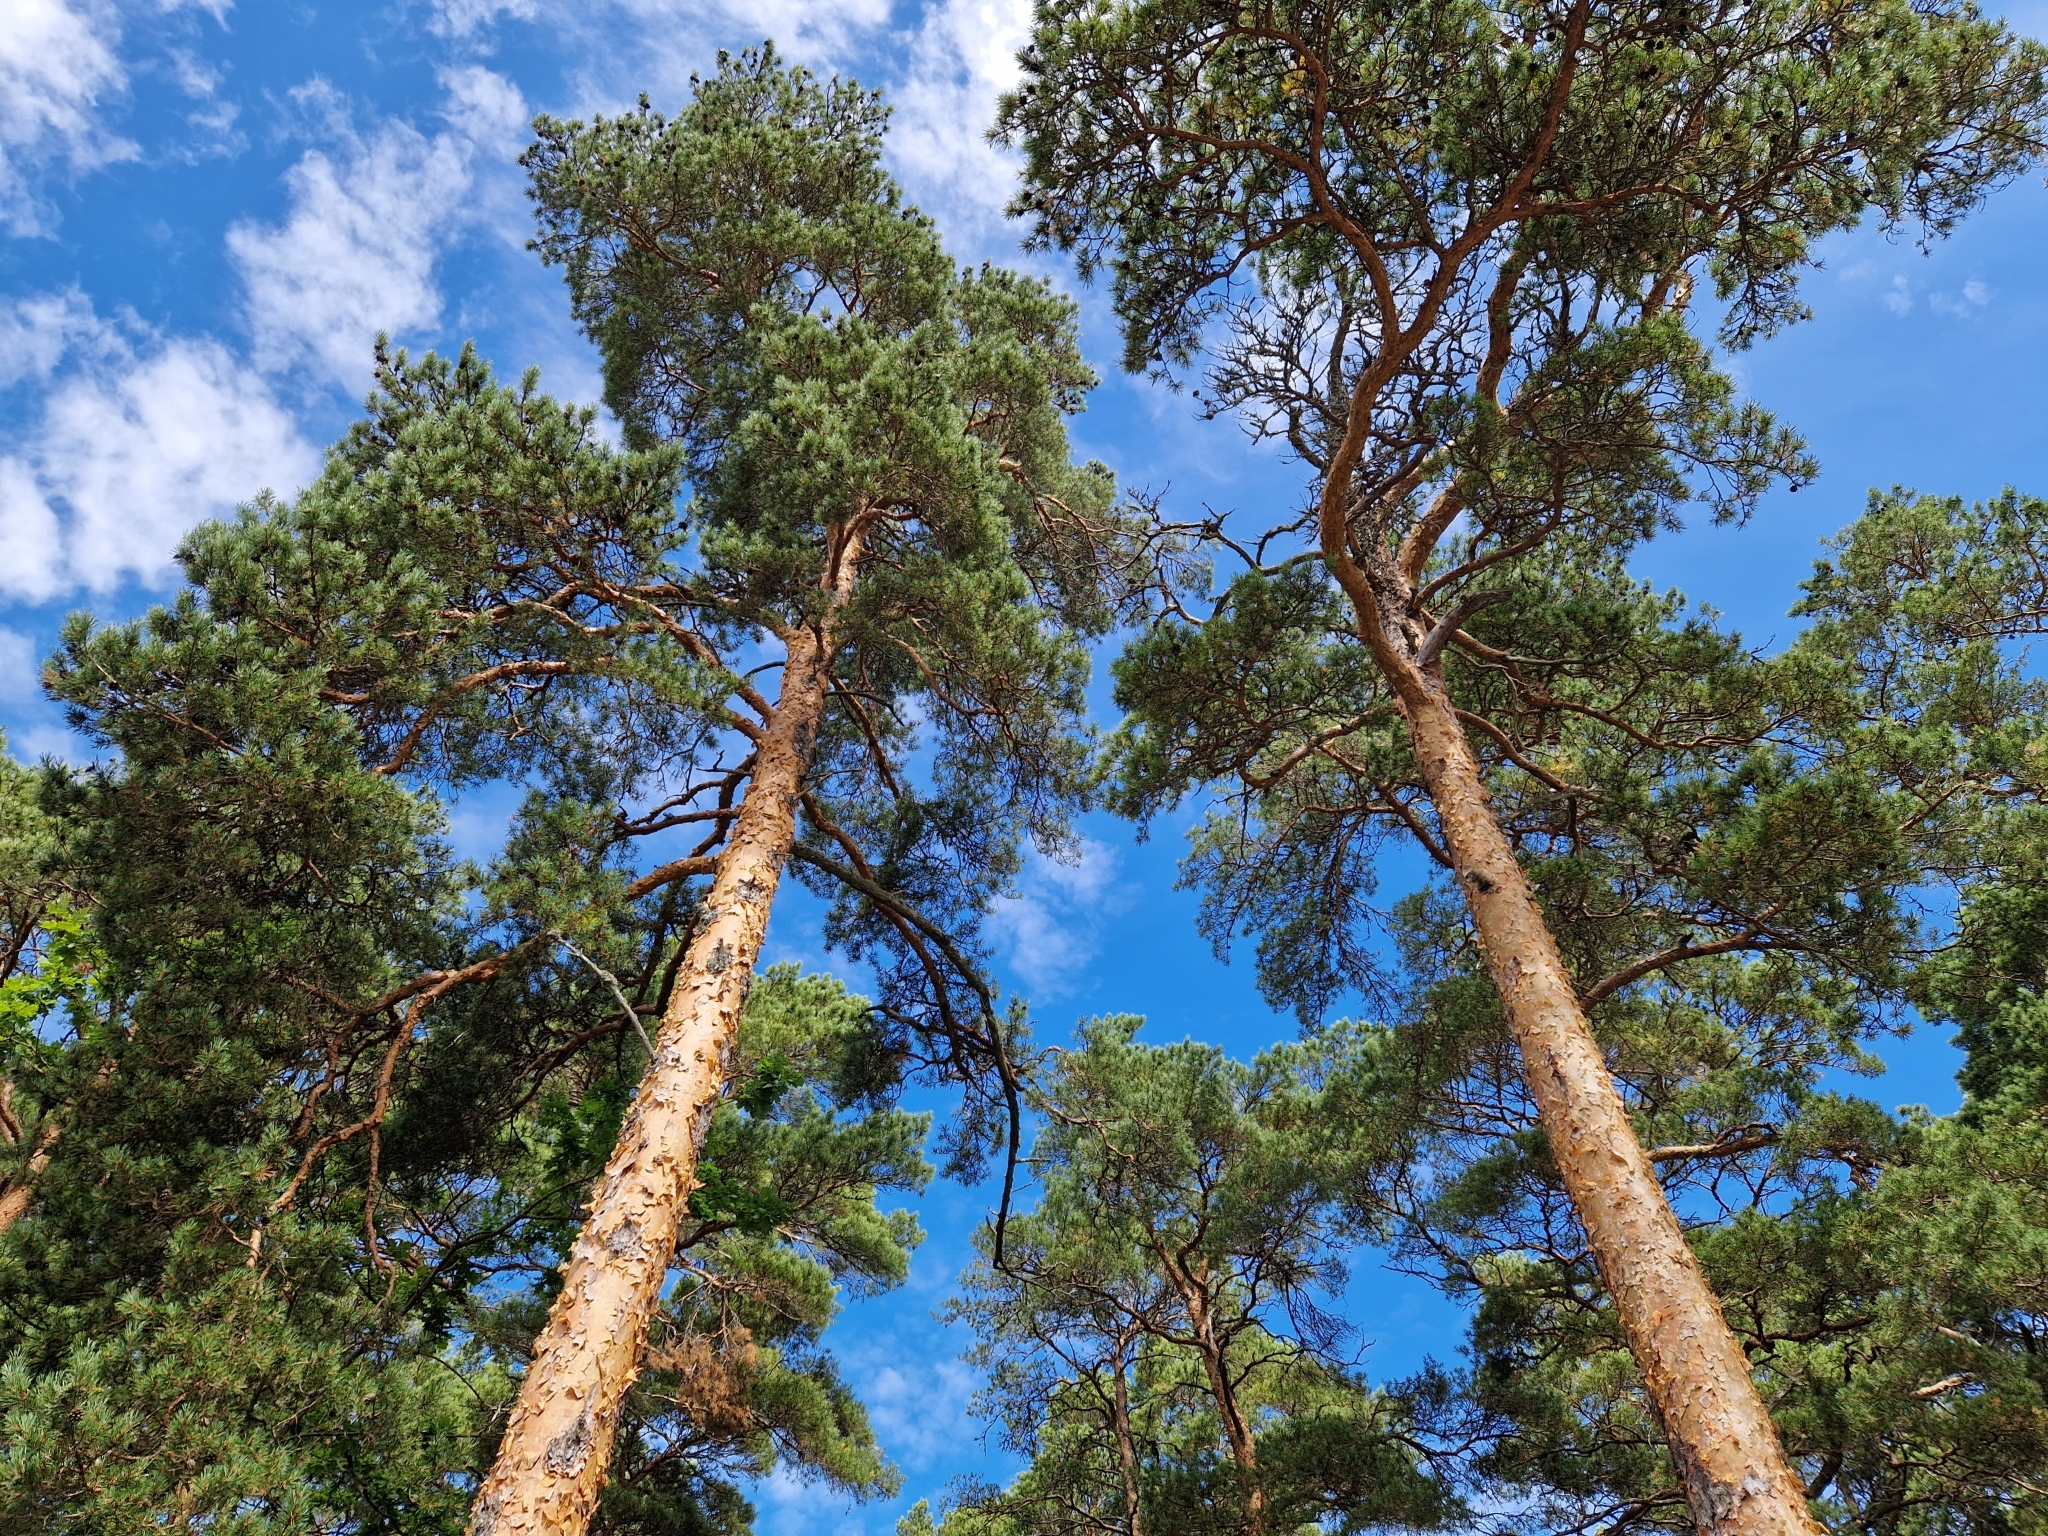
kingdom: Plantae
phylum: Tracheophyta
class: Pinopsida
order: Pinales
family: Pinaceae
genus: Pinus
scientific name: Pinus sylvestris
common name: Scots pine
